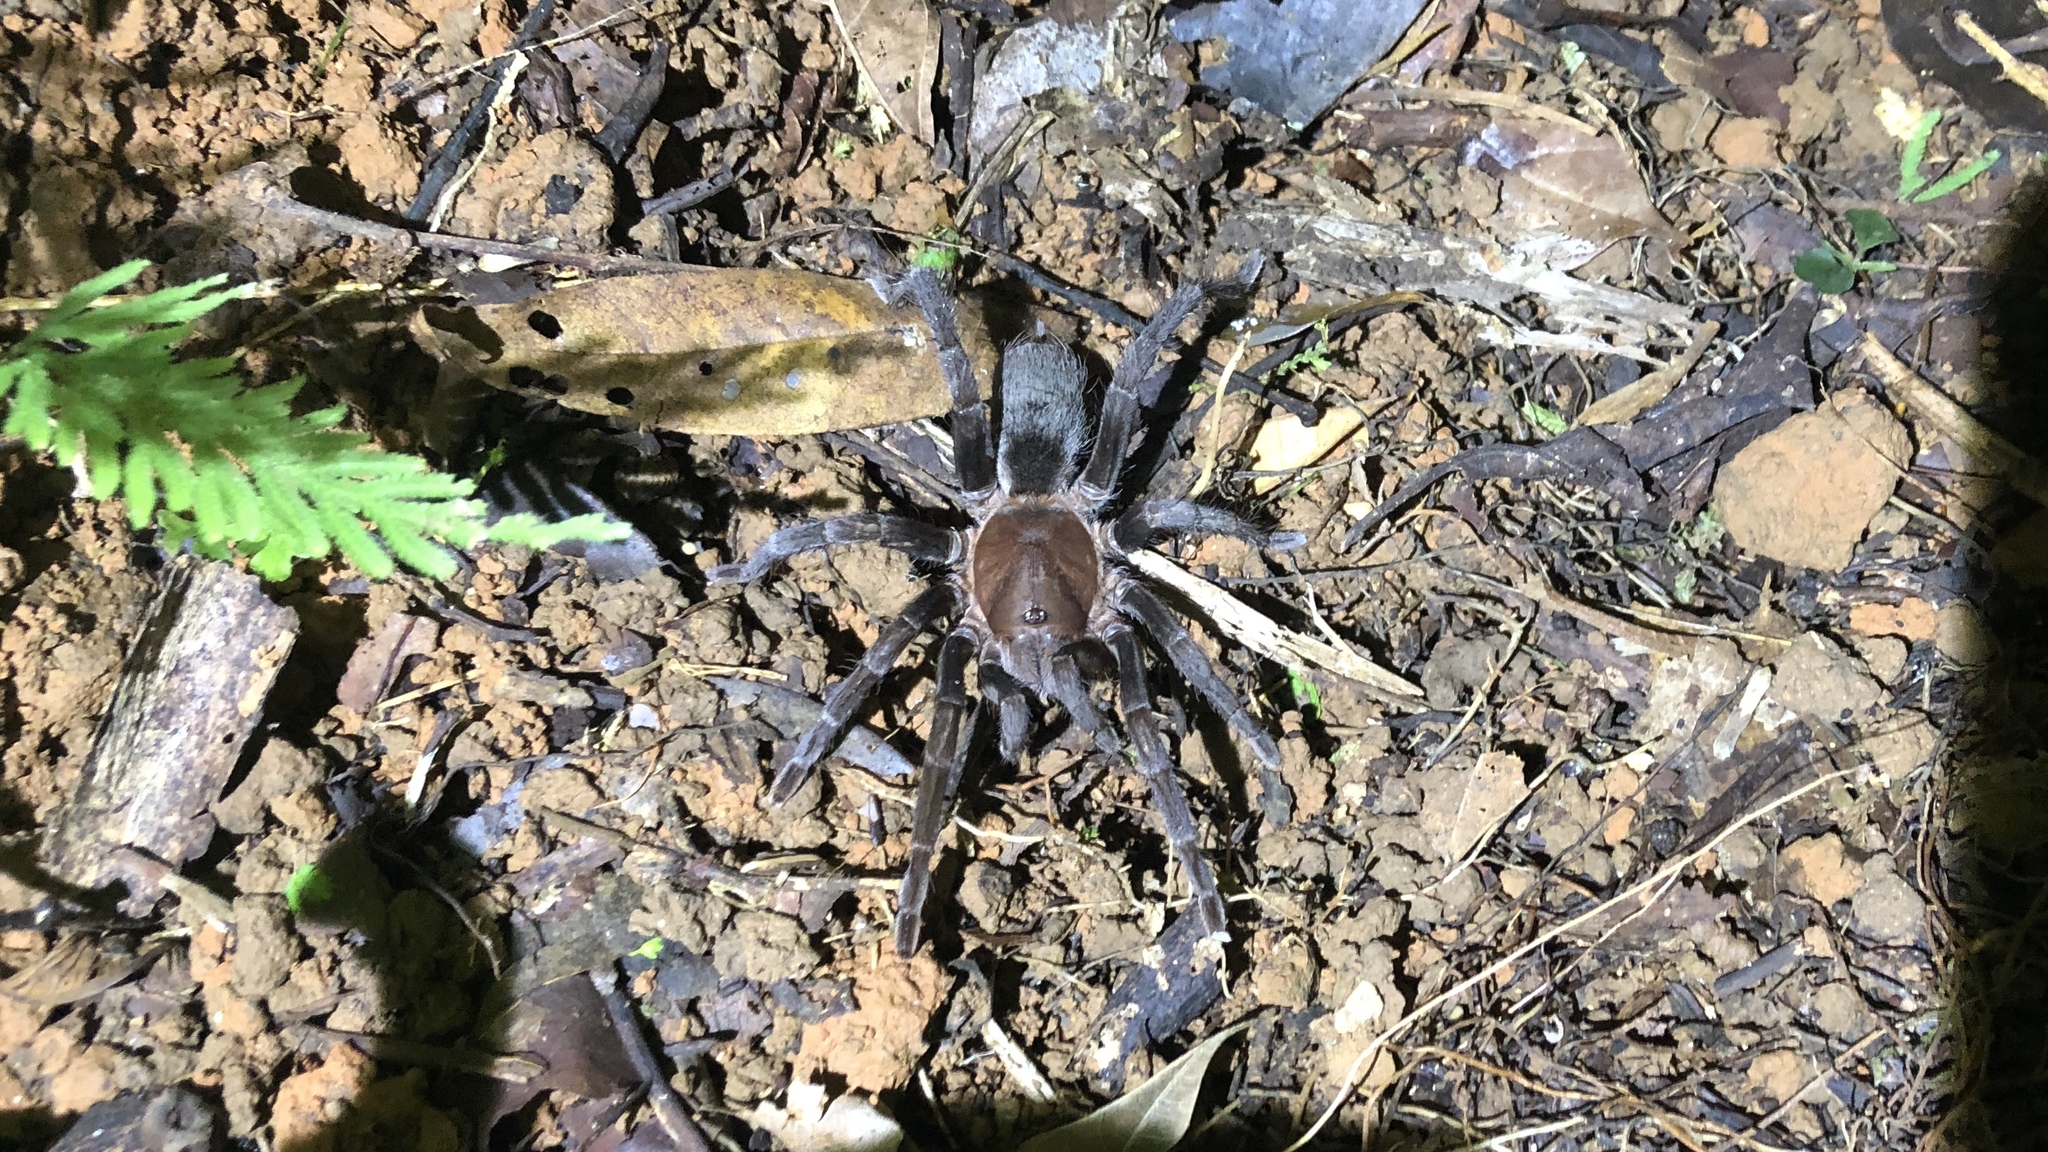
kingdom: Animalia
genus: Crypsidromus
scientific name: Crypsidromus
